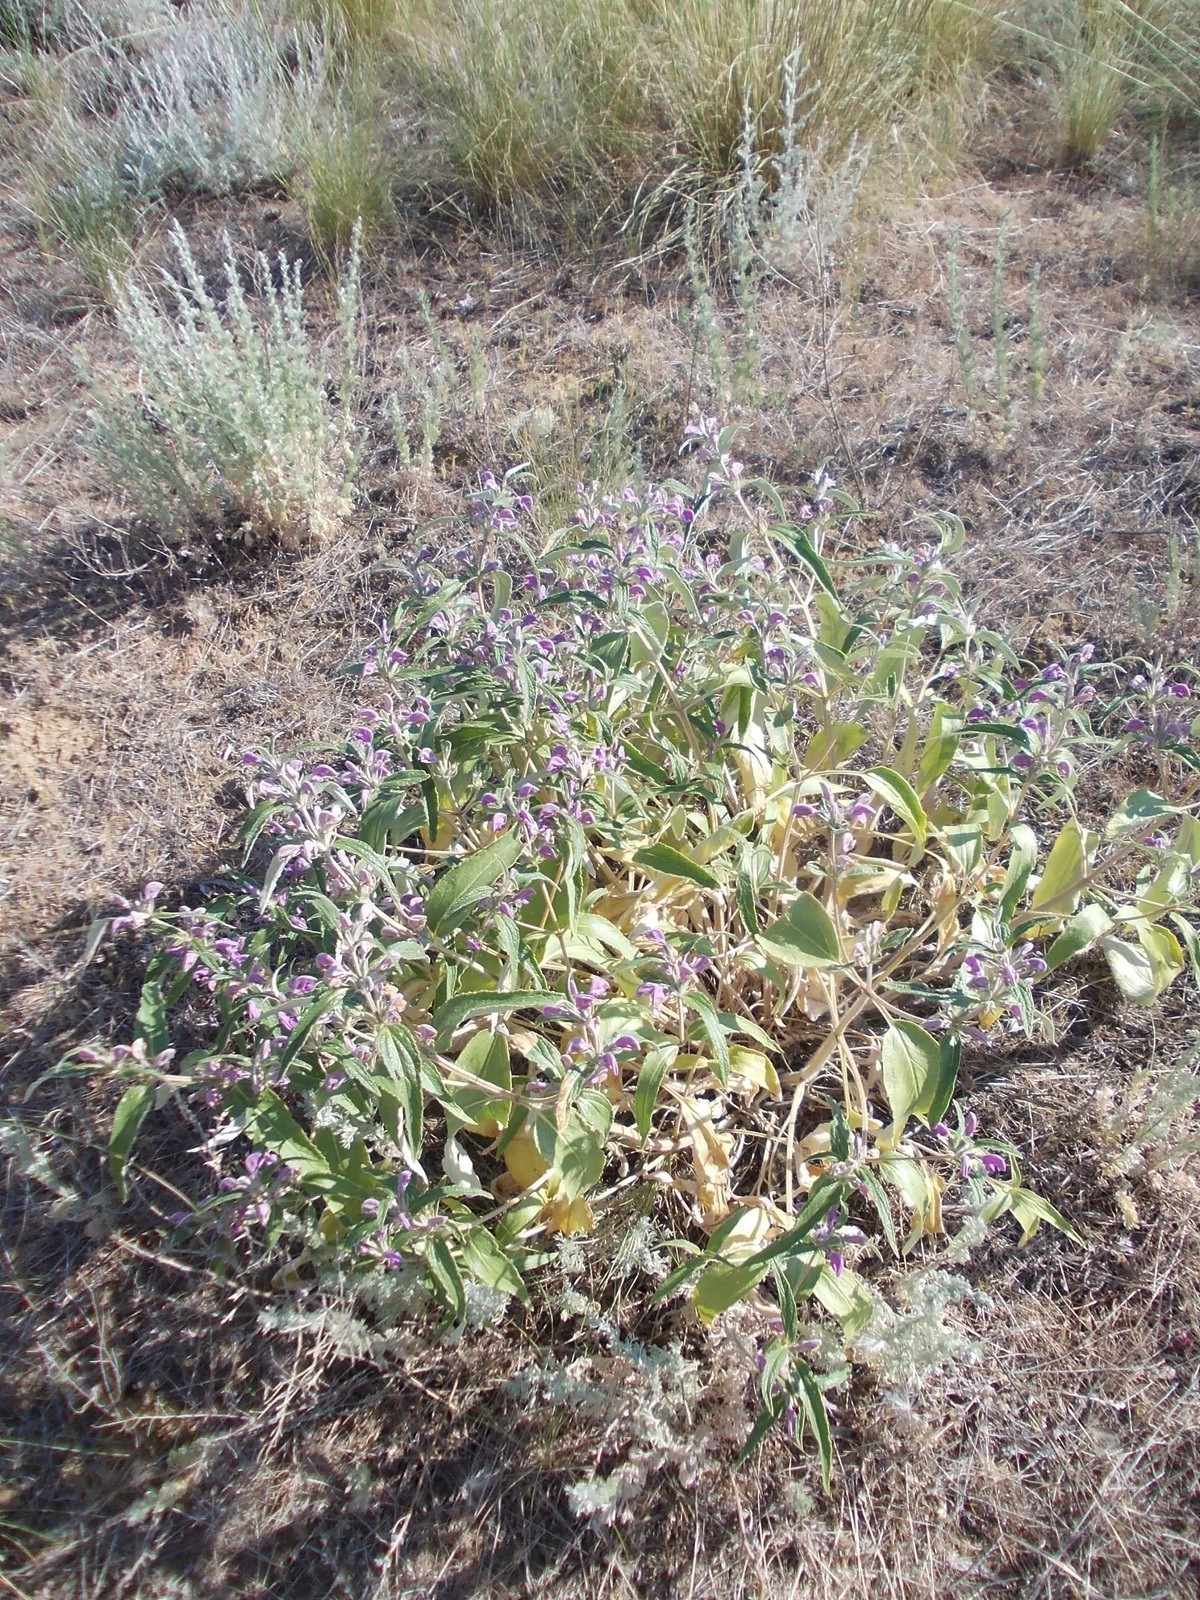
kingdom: Plantae
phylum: Tracheophyta
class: Magnoliopsida
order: Lamiales
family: Lamiaceae
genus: Phlomis
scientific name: Phlomis herba-venti
